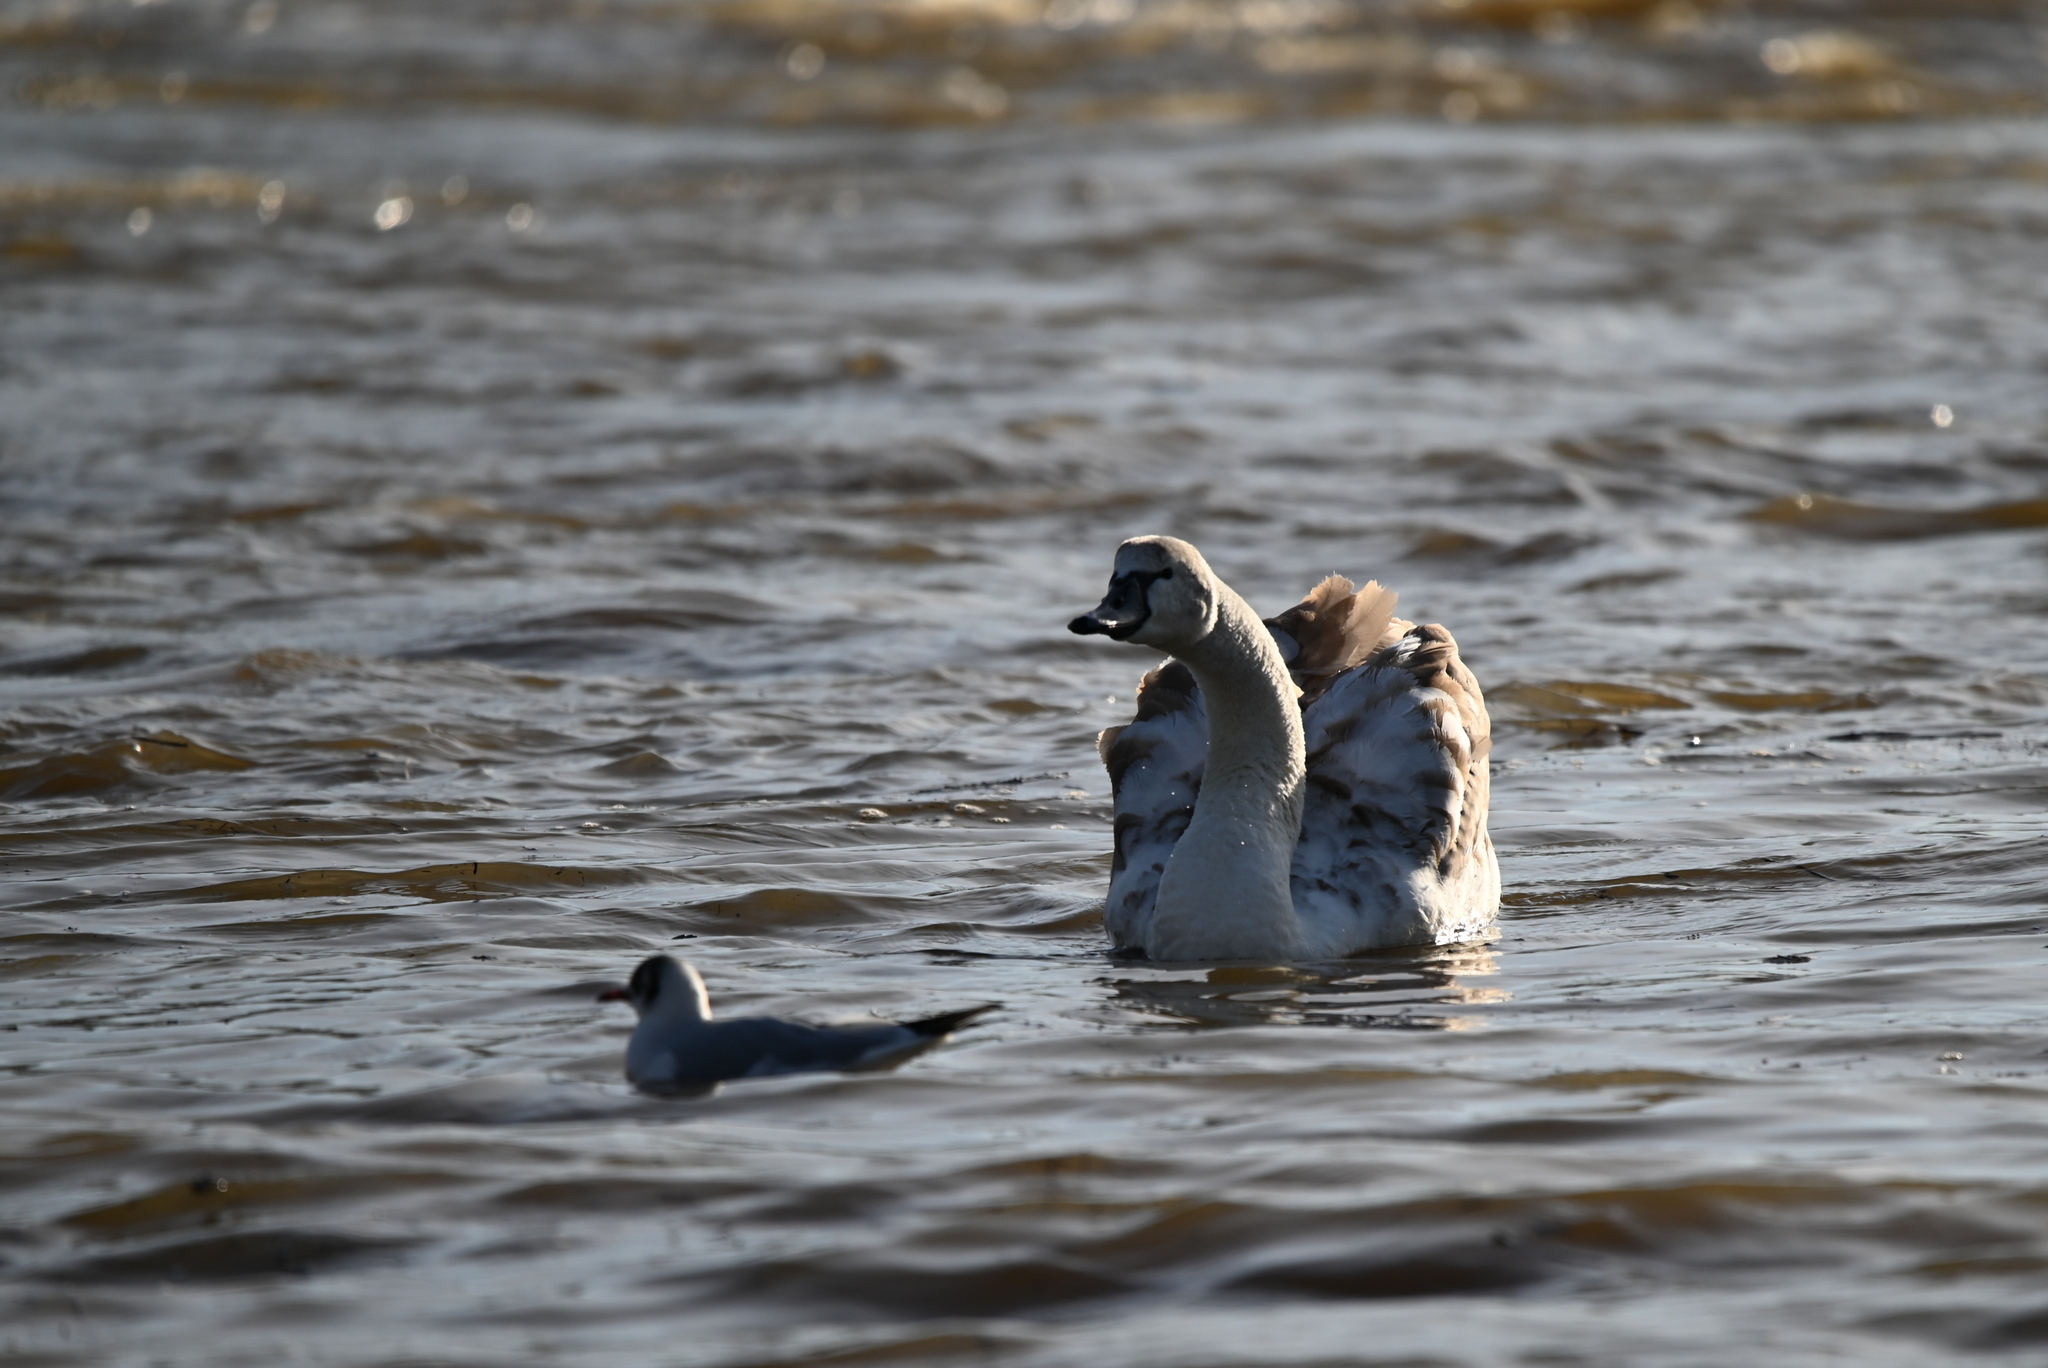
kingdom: Animalia
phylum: Chordata
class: Aves
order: Anseriformes
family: Anatidae
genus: Cygnus
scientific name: Cygnus olor
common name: Mute swan
